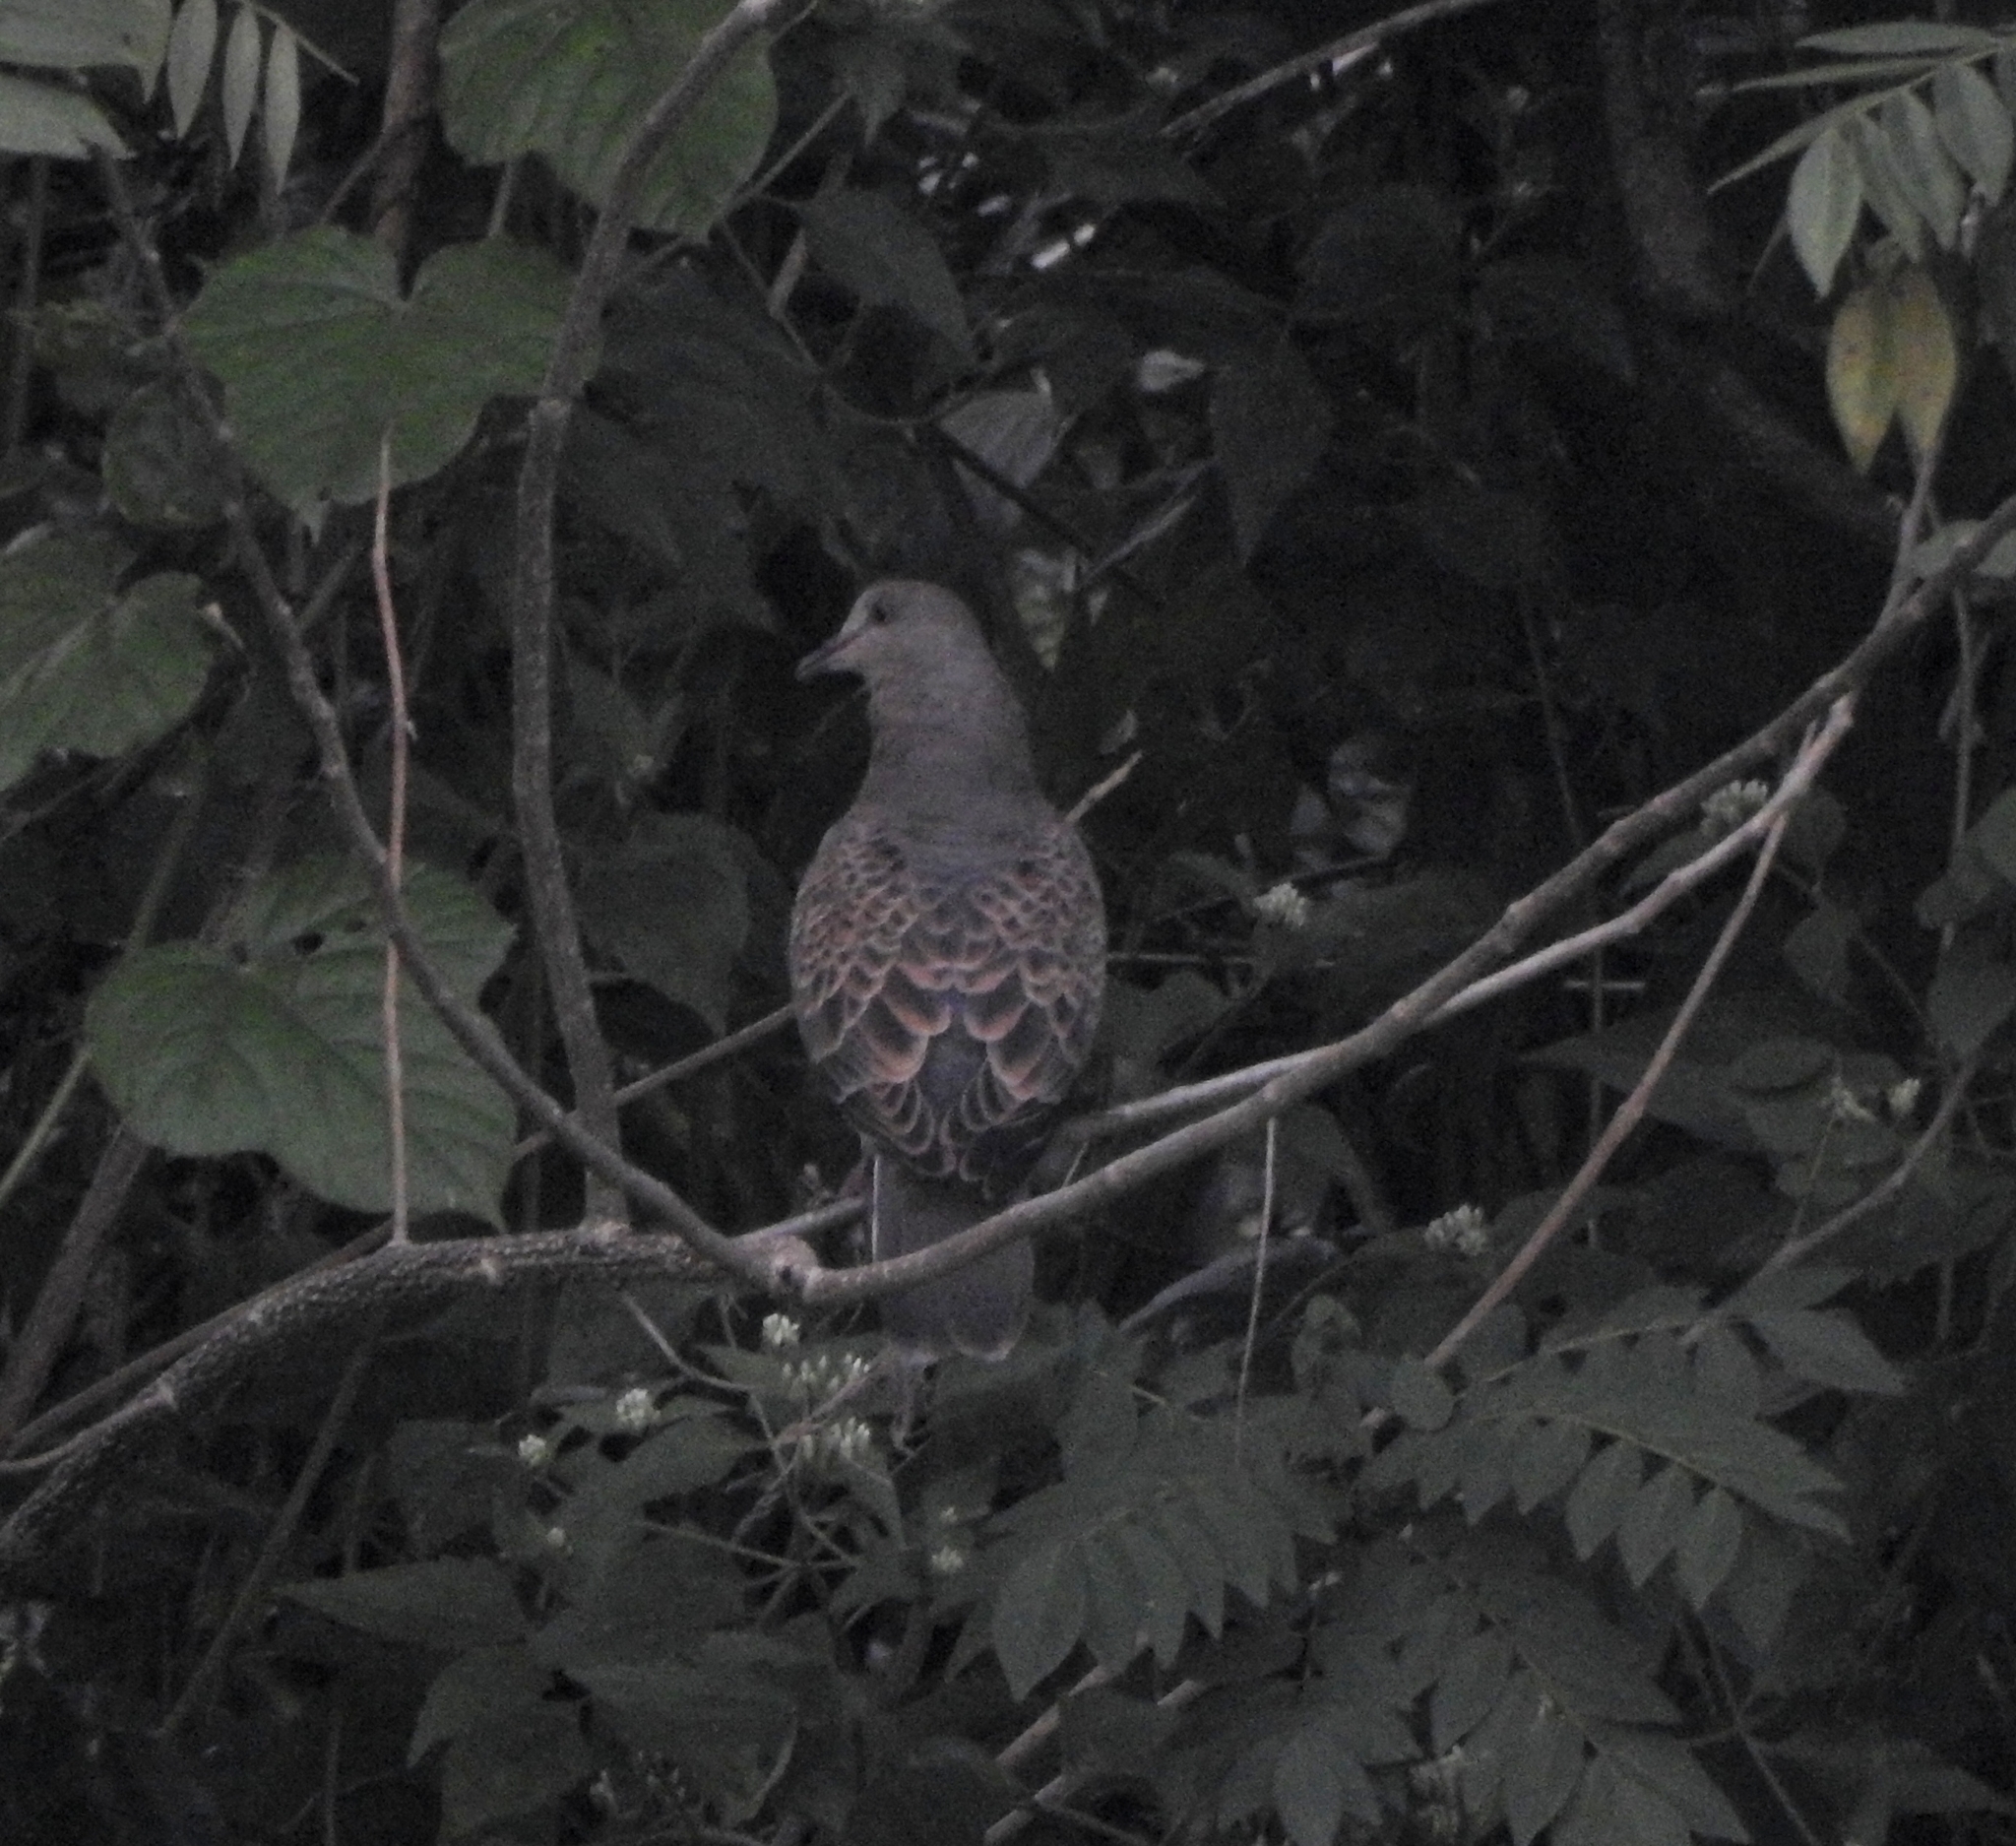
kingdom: Animalia
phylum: Chordata
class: Aves
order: Columbiformes
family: Columbidae
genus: Streptopelia
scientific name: Streptopelia orientalis
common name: Oriental turtle dove
